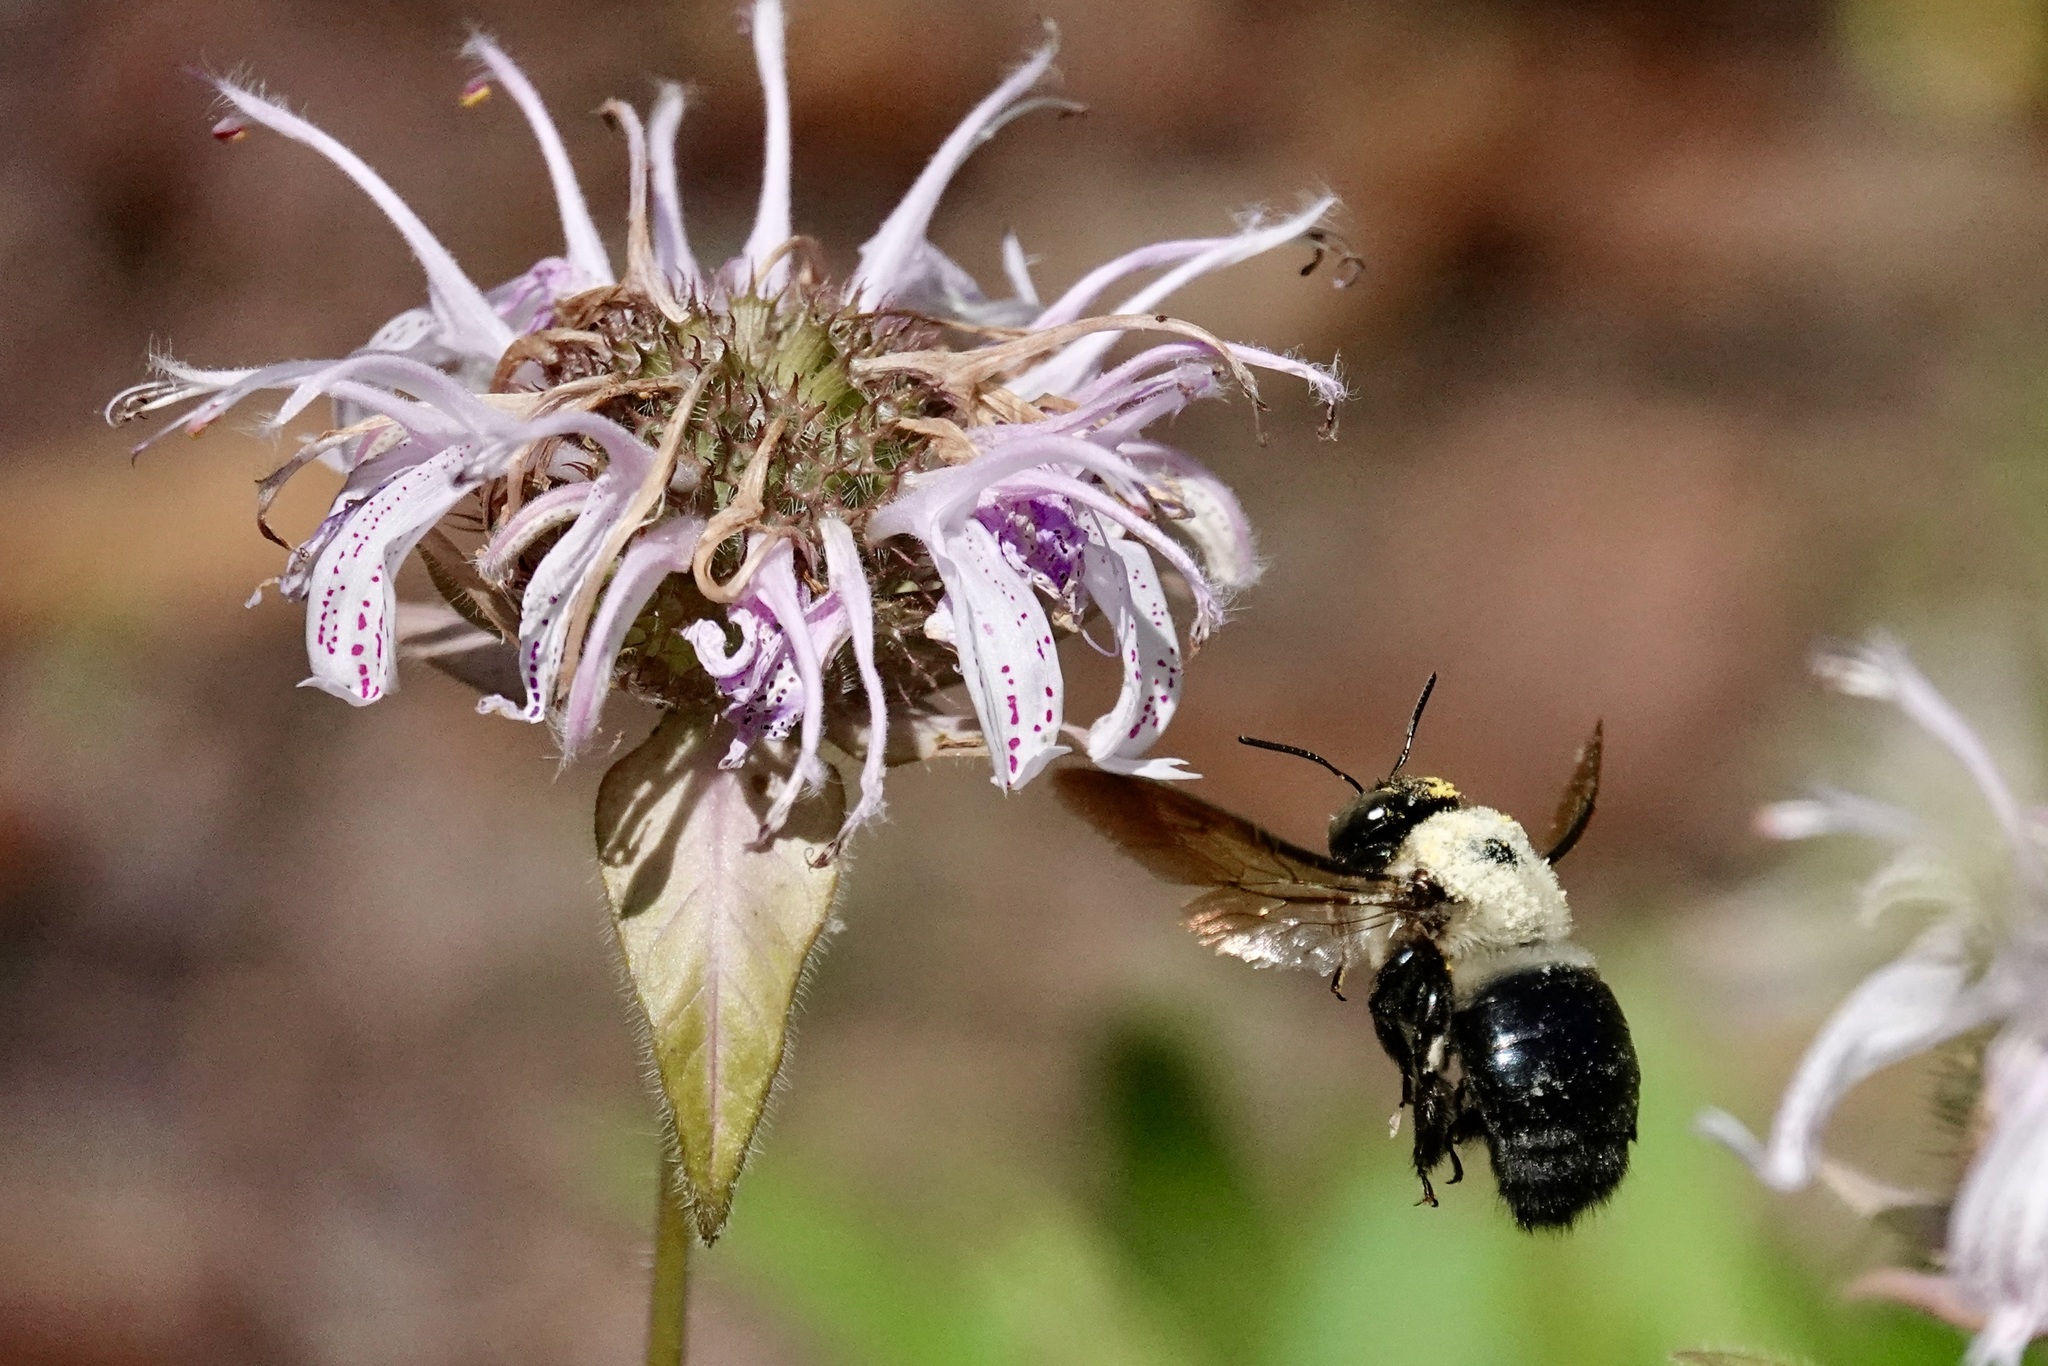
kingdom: Animalia
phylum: Arthropoda
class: Insecta
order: Hymenoptera
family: Apidae
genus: Xylocopa
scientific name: Xylocopa virginica
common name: Carpenter bee
